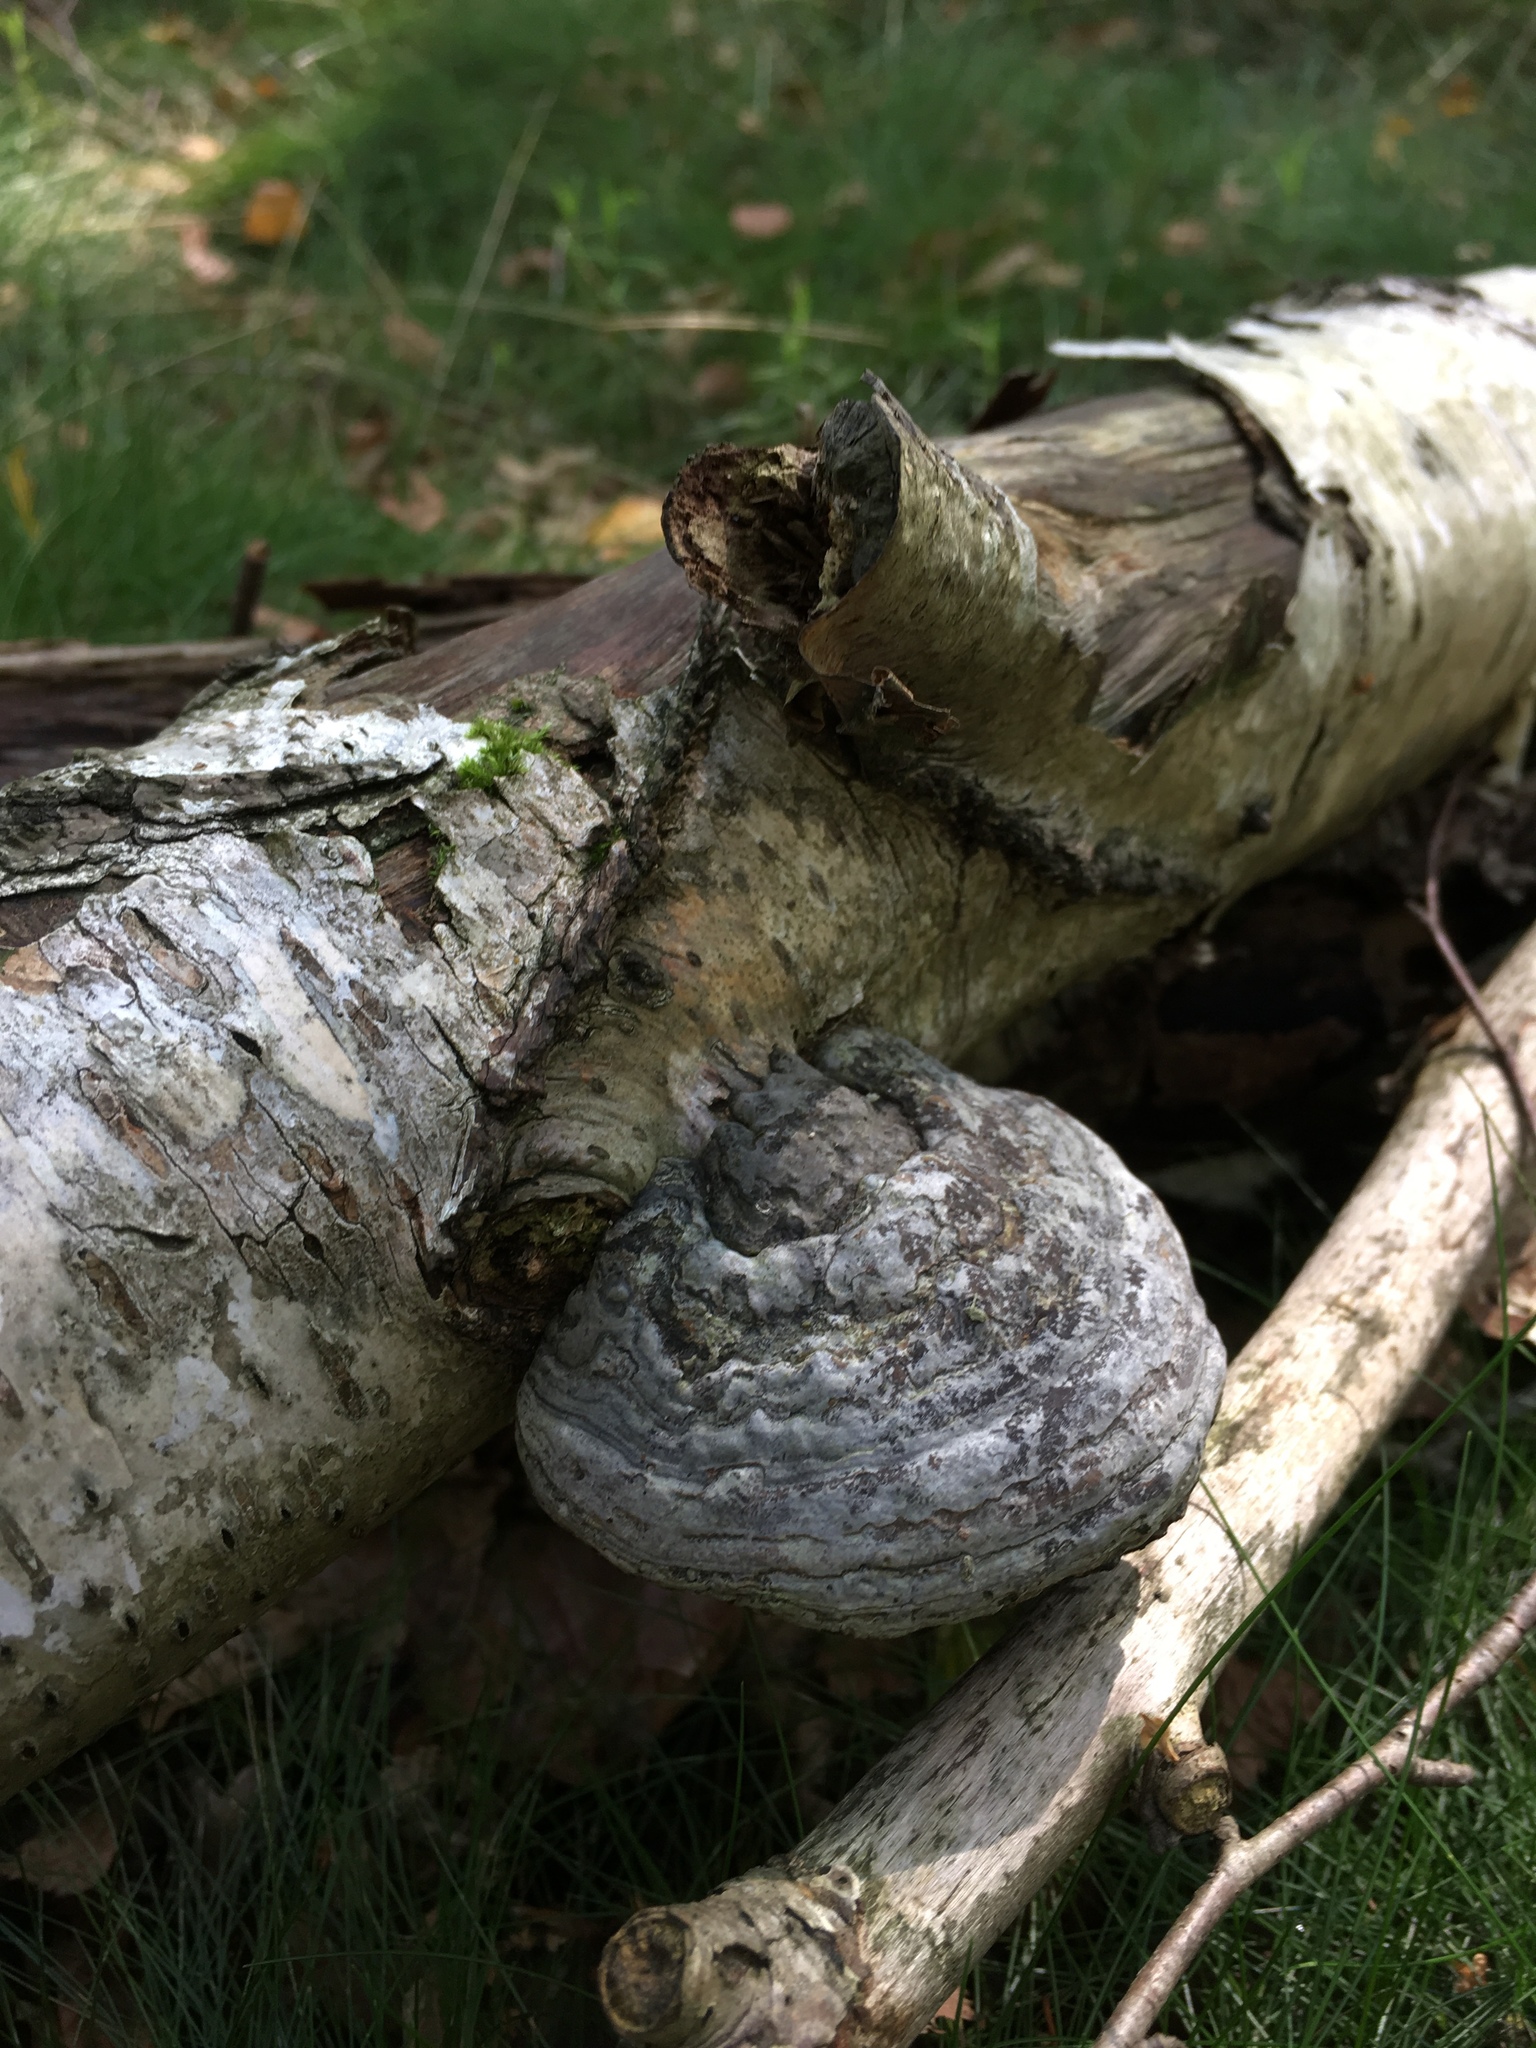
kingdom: Fungi
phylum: Basidiomycota
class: Agaricomycetes
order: Polyporales
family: Polyporaceae
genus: Fomes
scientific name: Fomes fomentarius
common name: Hoof fungus
